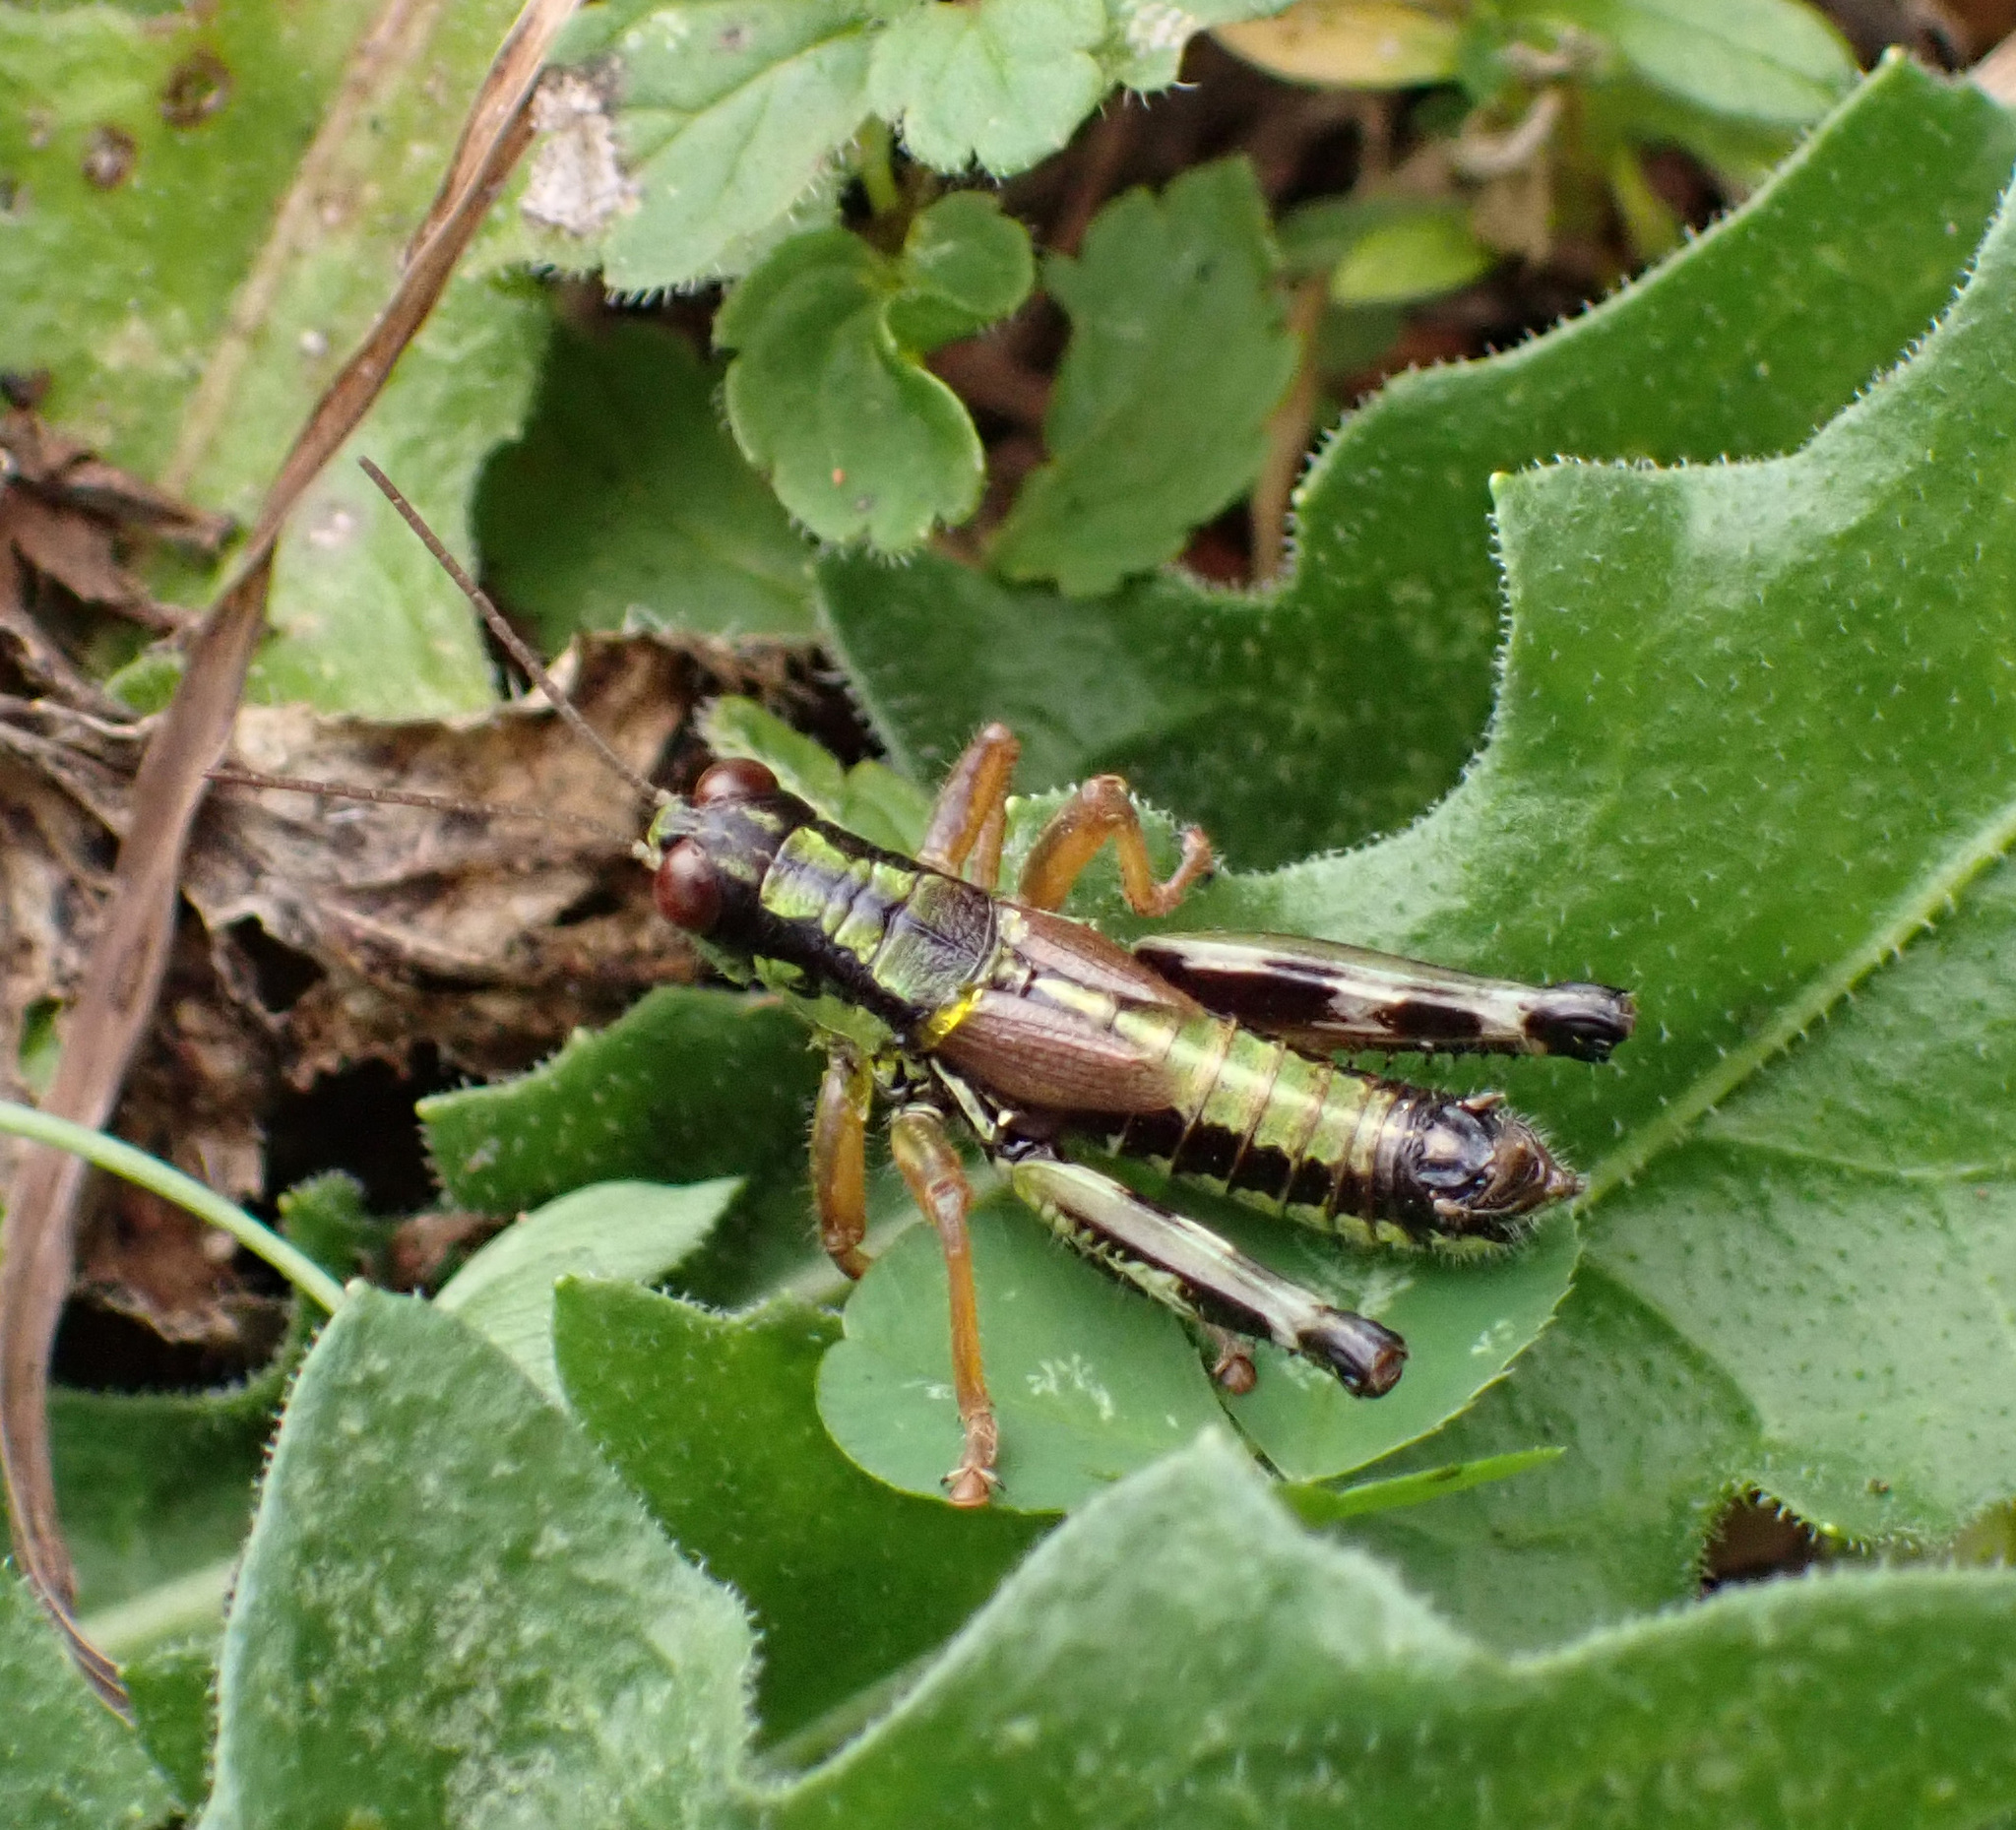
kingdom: Animalia
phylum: Arthropoda
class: Insecta
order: Orthoptera
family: Acrididae
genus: Miramella
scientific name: Miramella alpina
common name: Green mountain grasshopper
